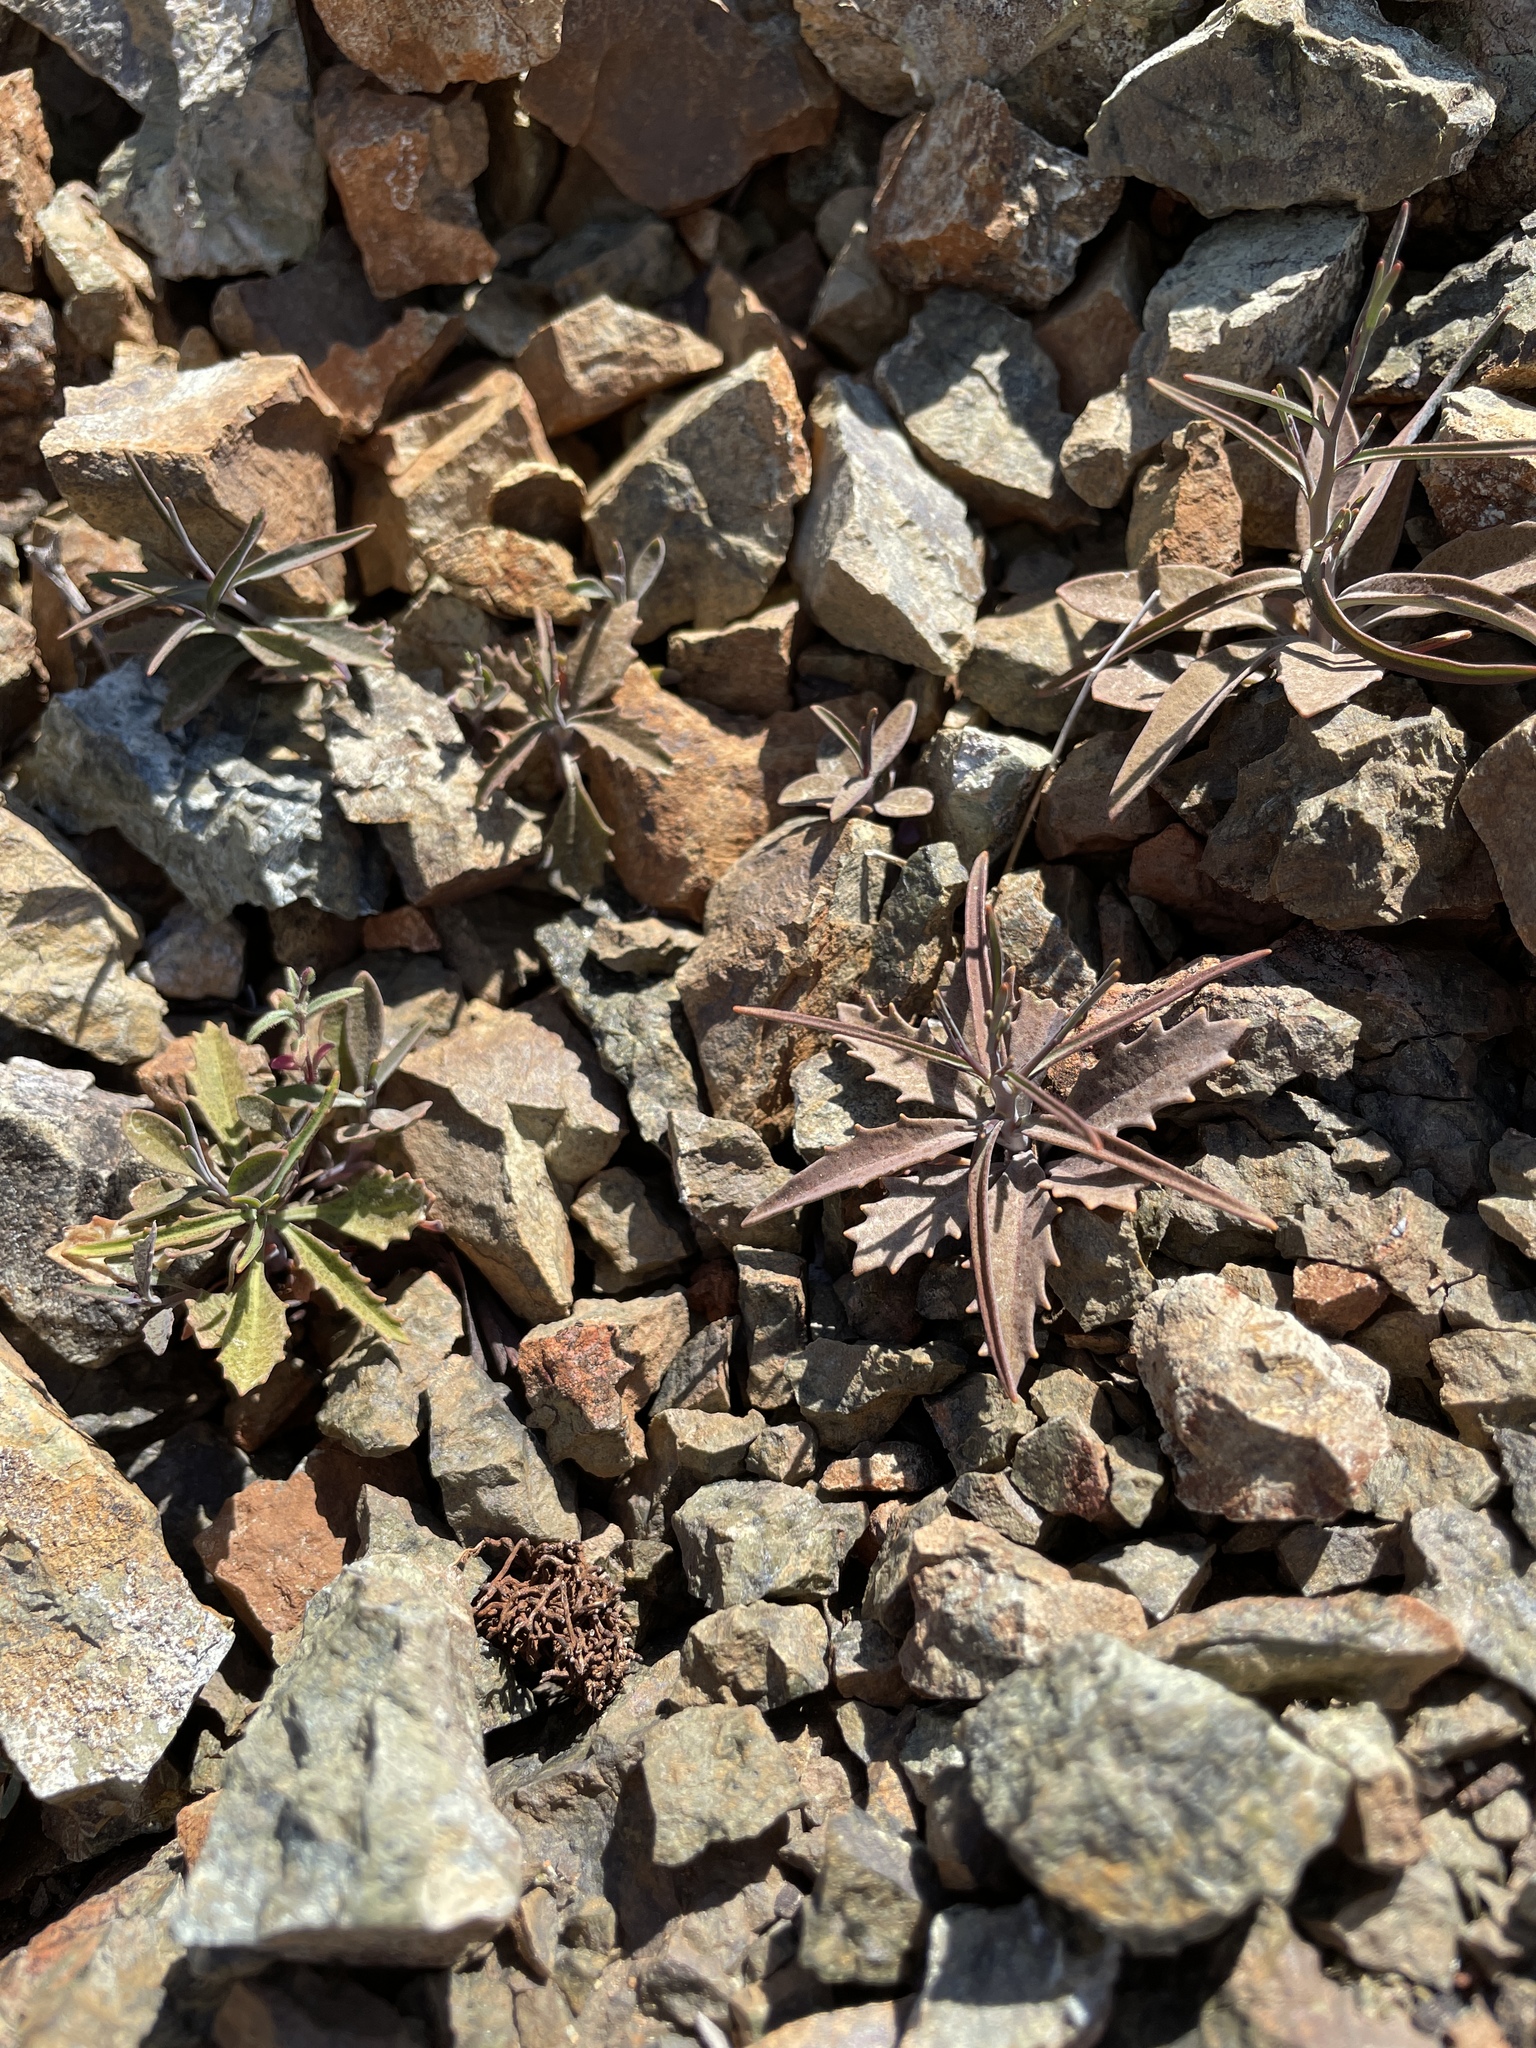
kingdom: Plantae
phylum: Tracheophyta
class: Magnoliopsida
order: Brassicales
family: Brassicaceae
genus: Streptanthus
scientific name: Streptanthus barbiger
